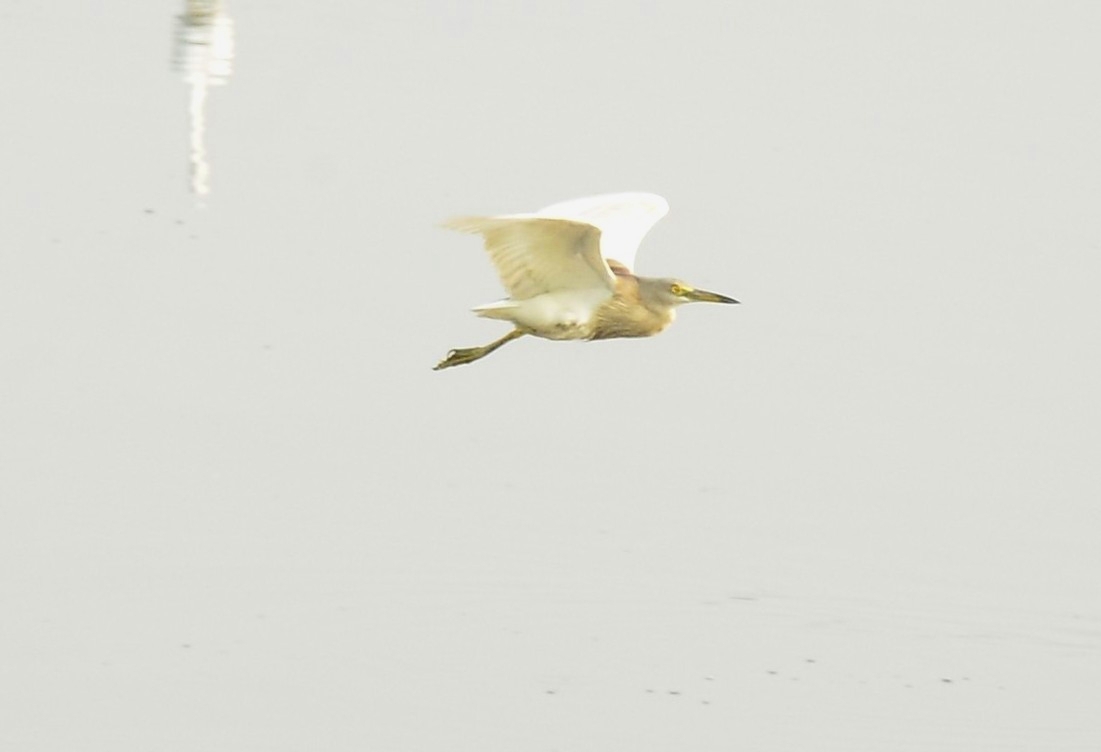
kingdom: Animalia
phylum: Chordata
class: Aves
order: Pelecaniformes
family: Ardeidae
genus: Ardeola
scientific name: Ardeola grayii
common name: Indian pond heron
